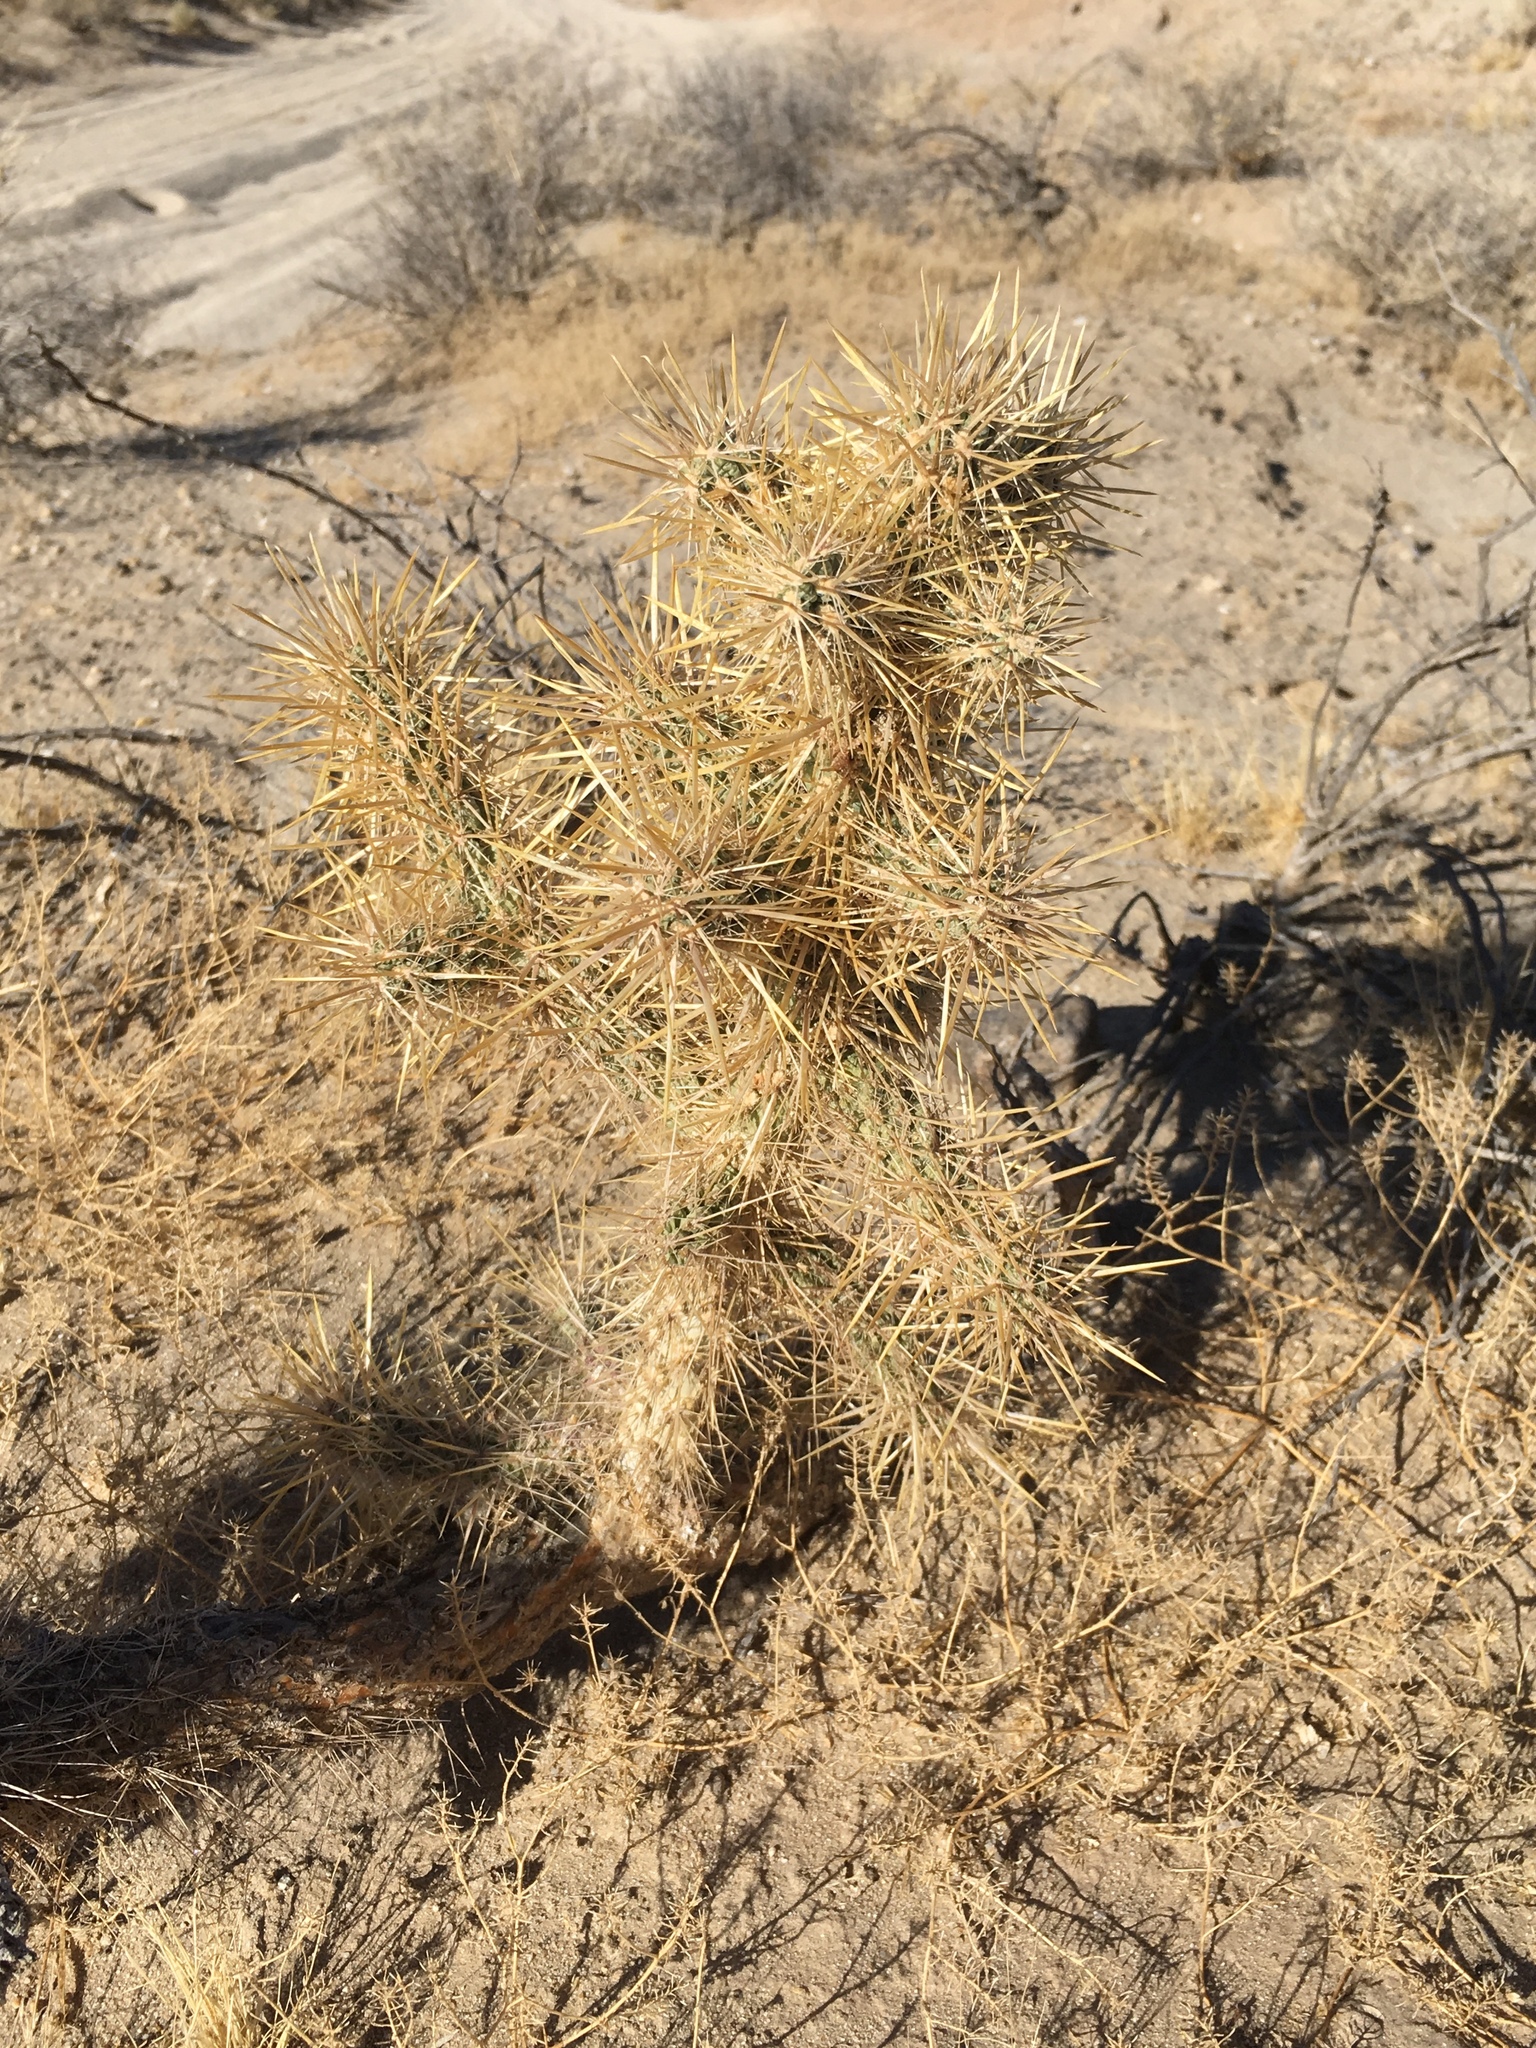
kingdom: Plantae
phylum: Tracheophyta
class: Magnoliopsida
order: Caryophyllales
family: Cactaceae
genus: Cylindropuntia
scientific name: Cylindropuntia echinocarpa
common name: Ground cholla
